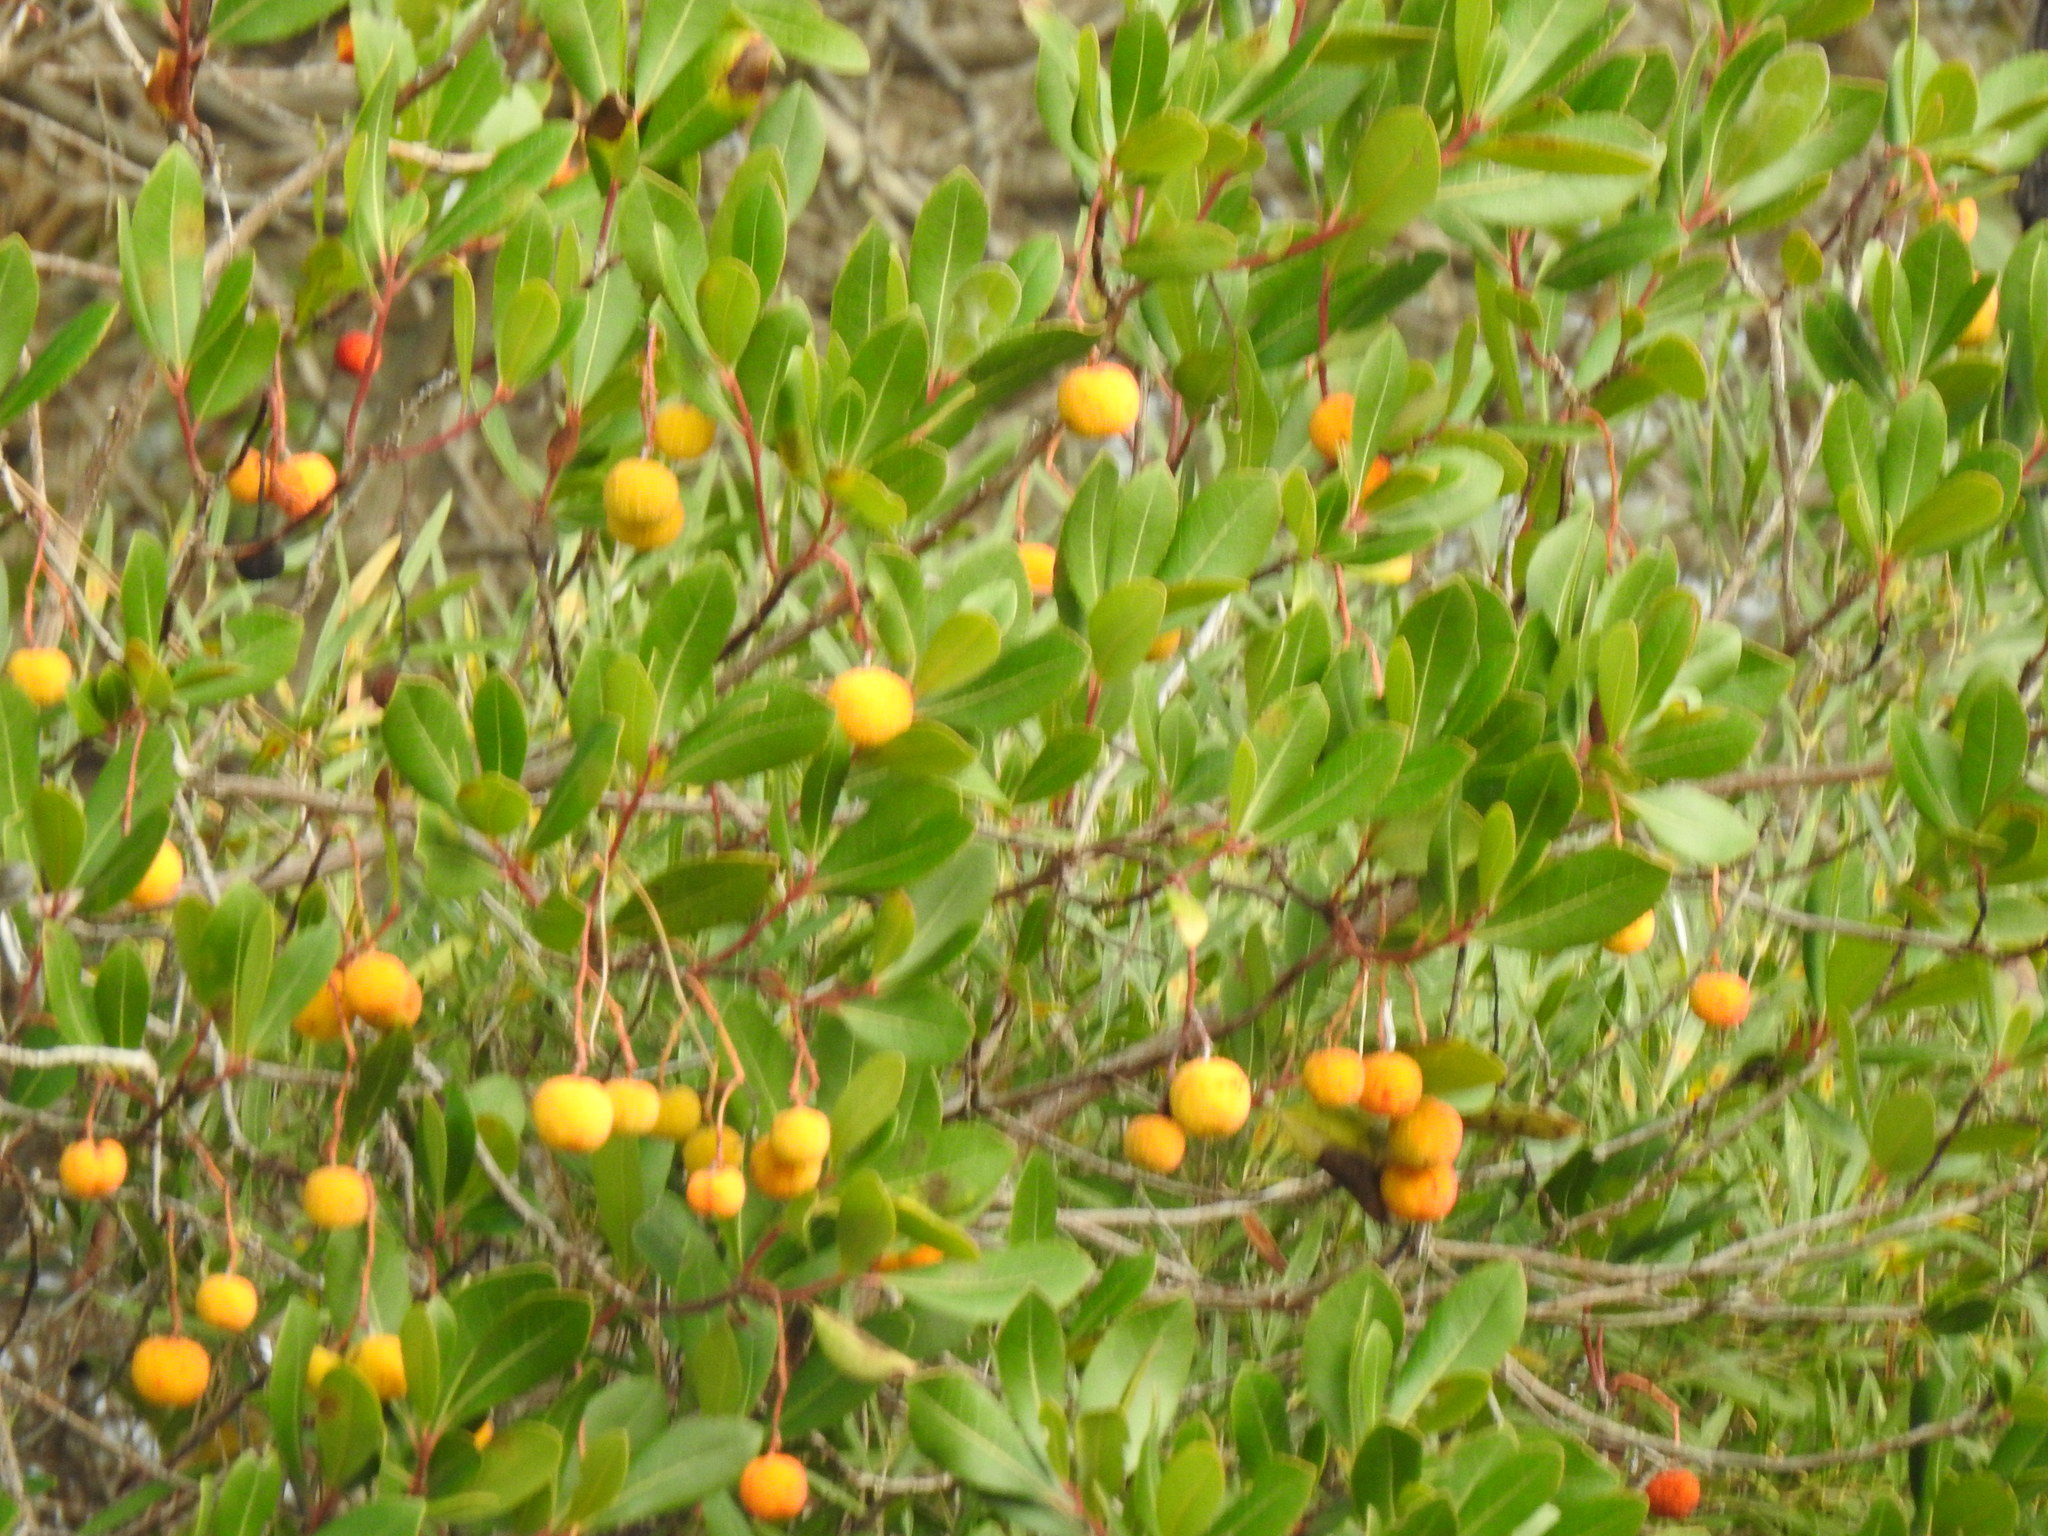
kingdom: Plantae
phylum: Tracheophyta
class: Magnoliopsida
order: Ericales
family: Ericaceae
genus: Arbutus
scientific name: Arbutus unedo
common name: Strawberry-tree
